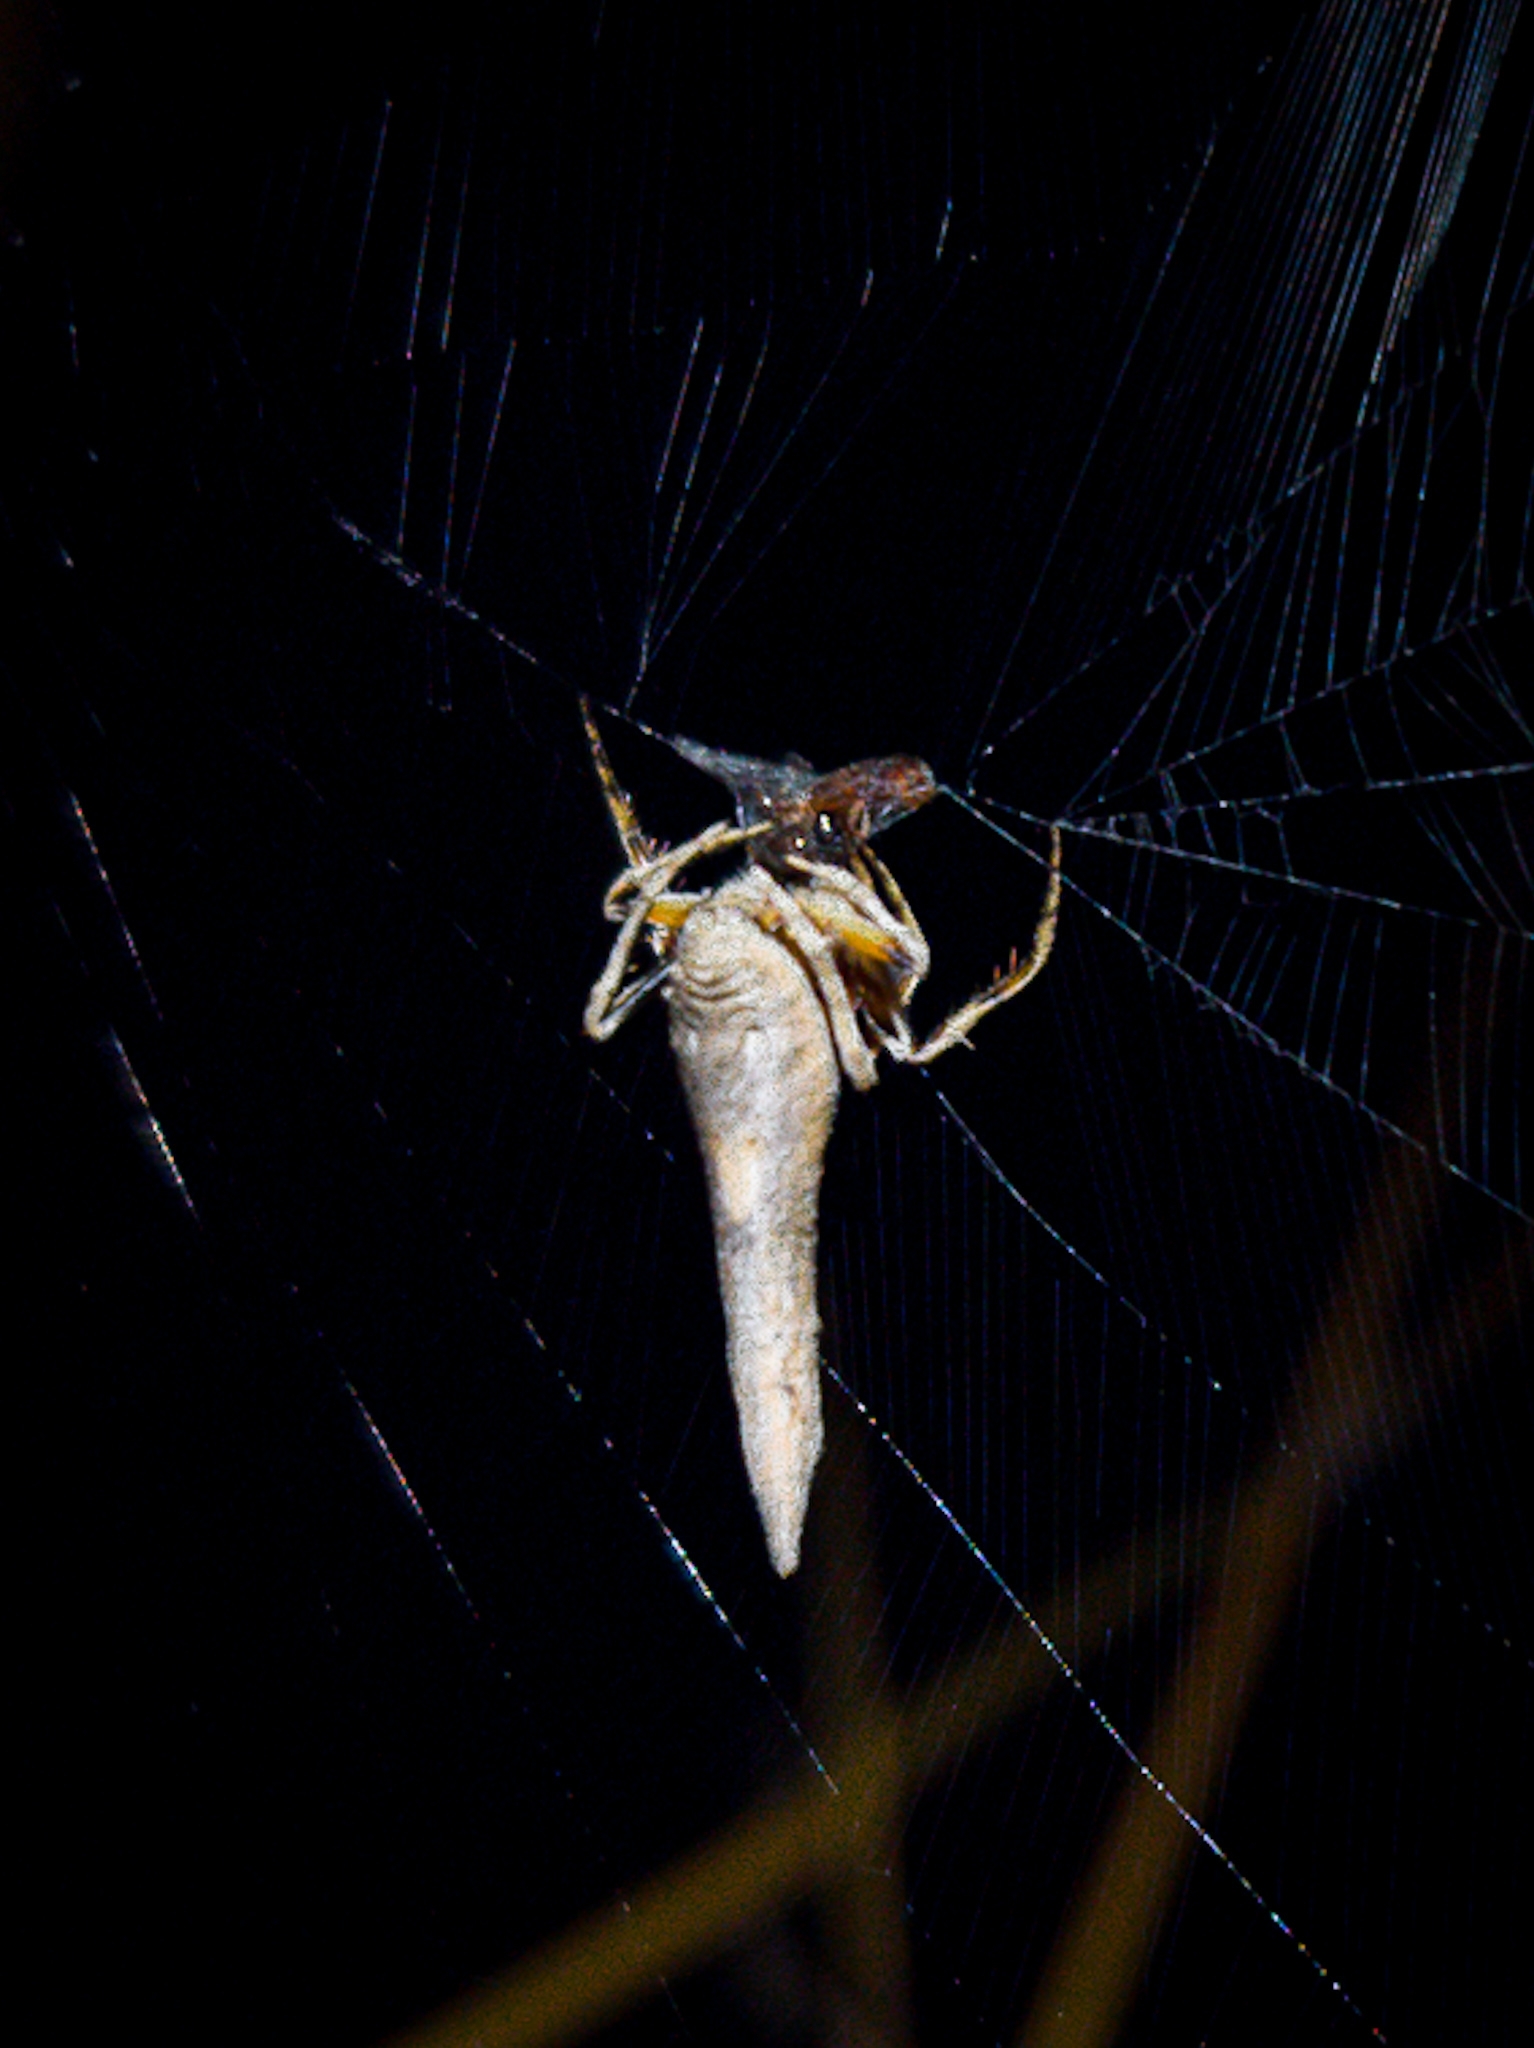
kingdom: Animalia
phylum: Arthropoda
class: Arachnida
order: Araneae
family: Araneidae
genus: Poltys
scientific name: Poltys columnaris
